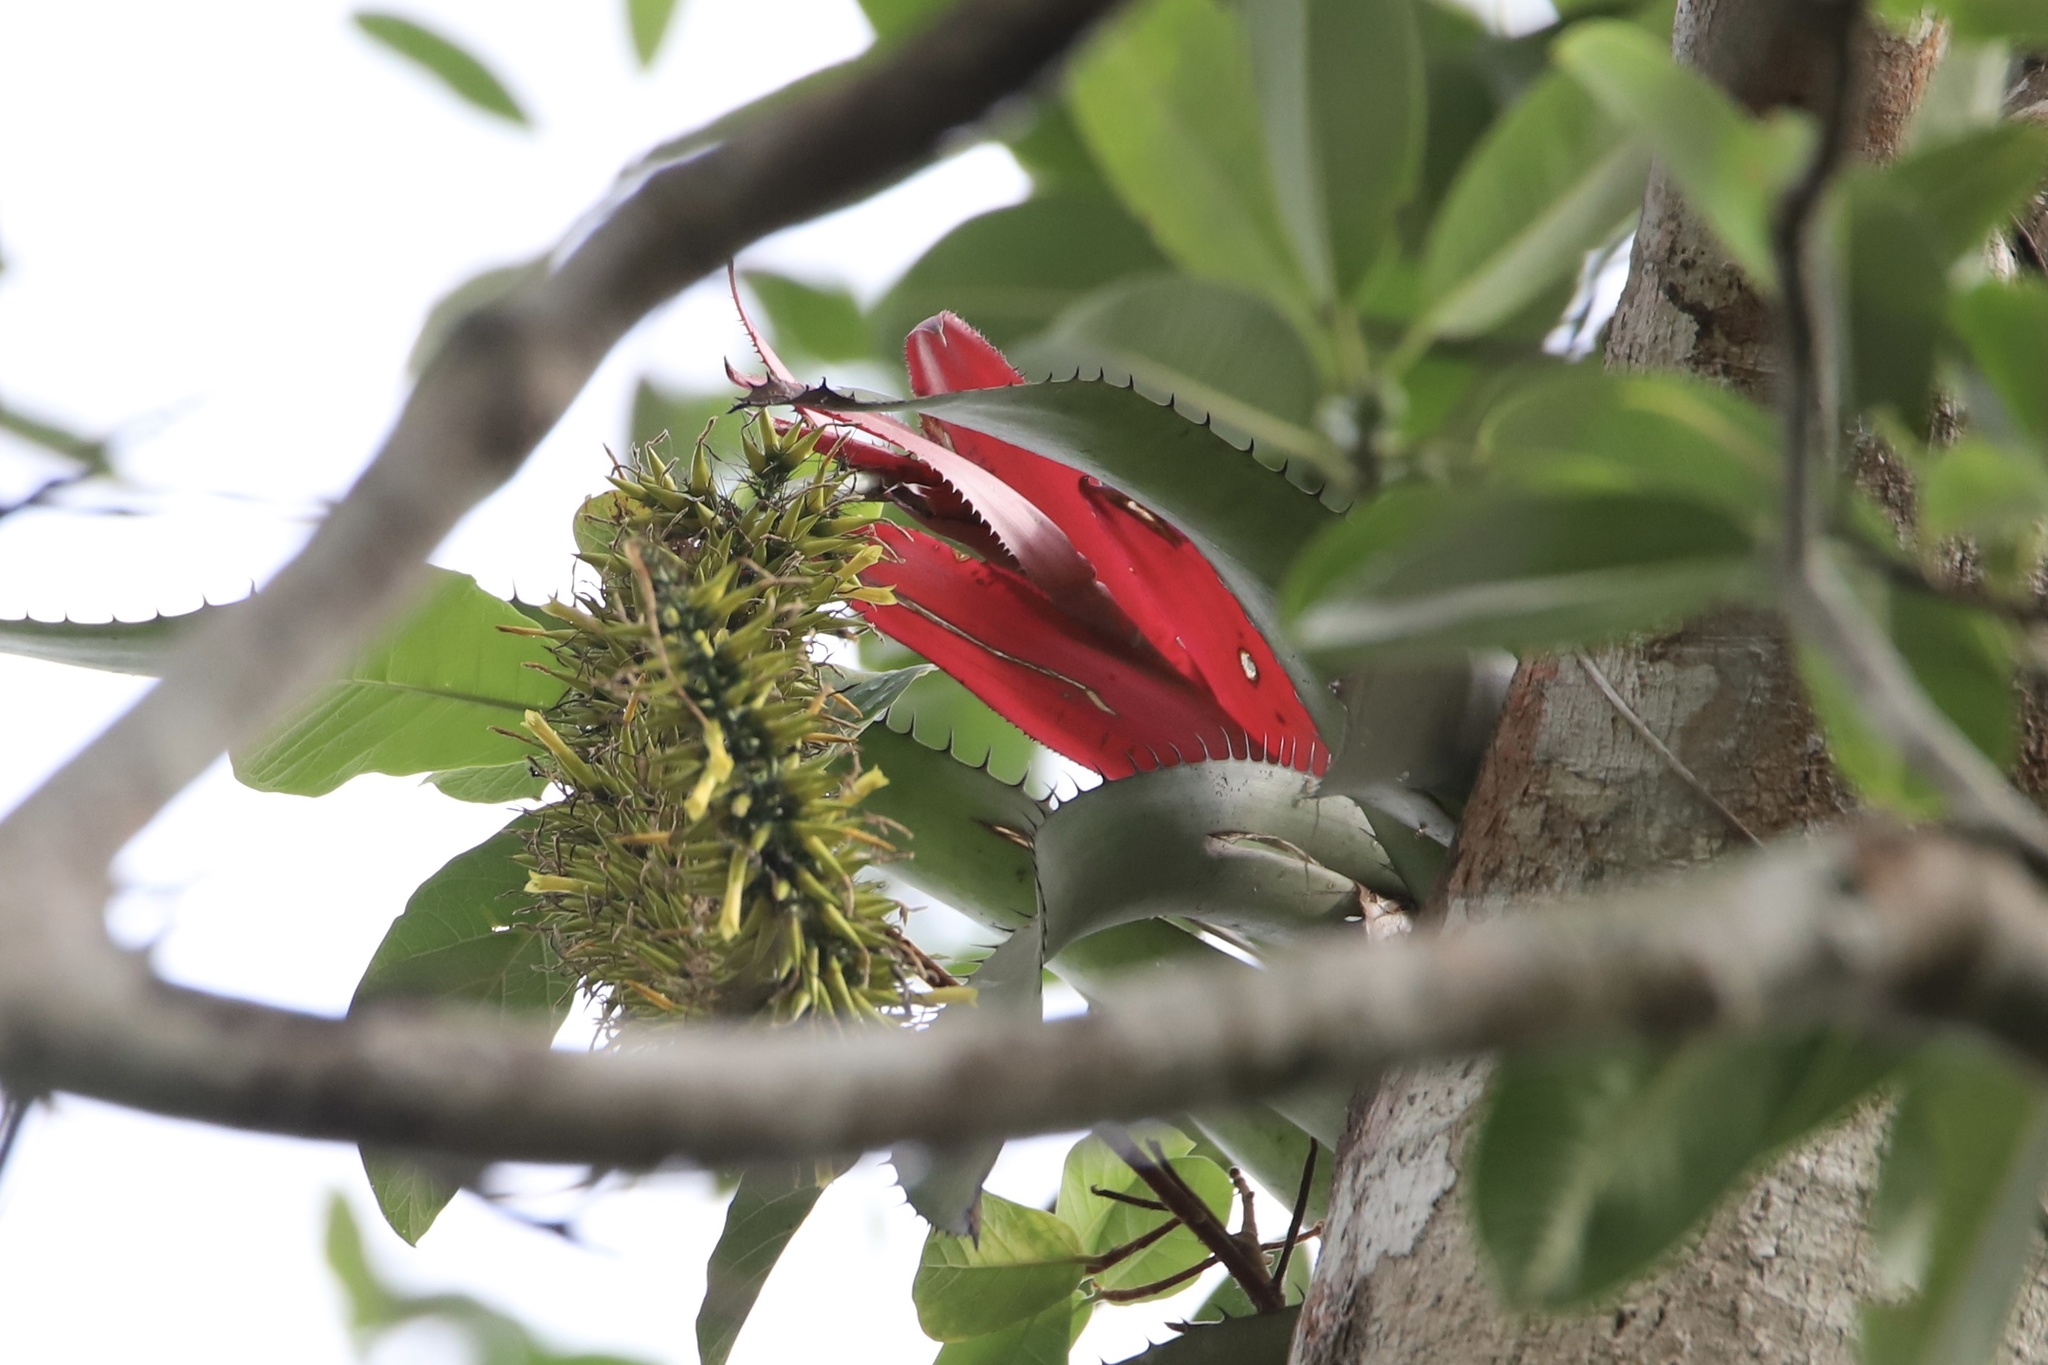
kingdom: Plantae
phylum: Tracheophyta
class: Liliopsida
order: Poales
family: Bromeliaceae
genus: Aechmea
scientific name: Aechmea setigera
